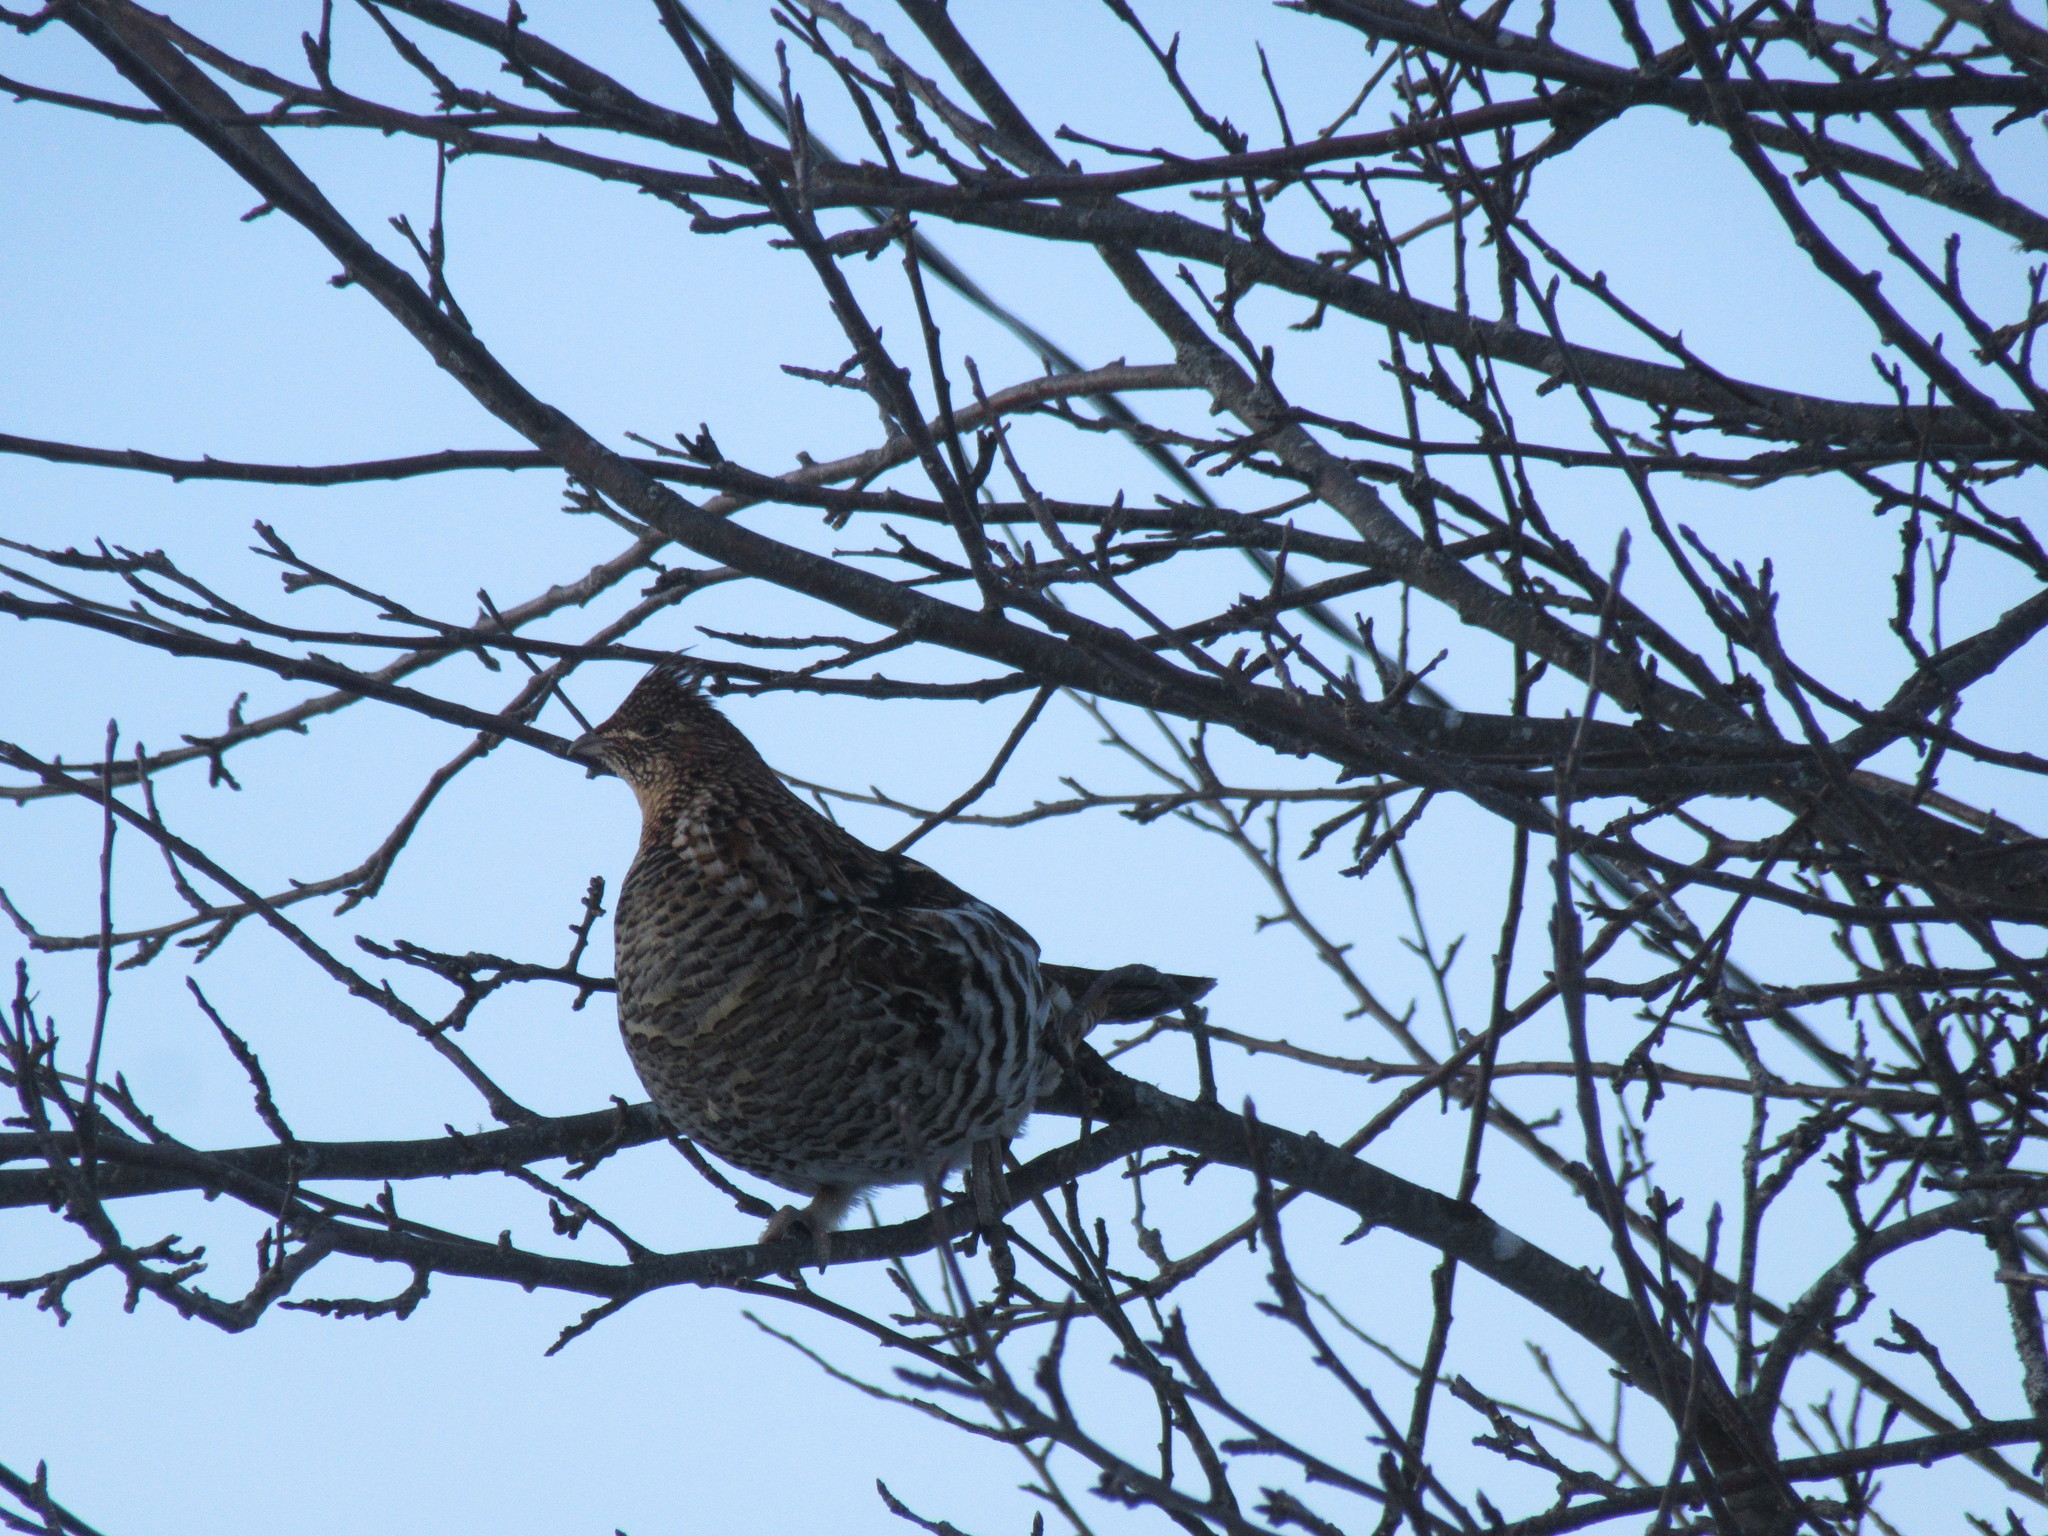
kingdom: Animalia
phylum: Chordata
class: Aves
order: Galliformes
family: Phasianidae
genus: Bonasa
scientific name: Bonasa umbellus
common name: Ruffed grouse
